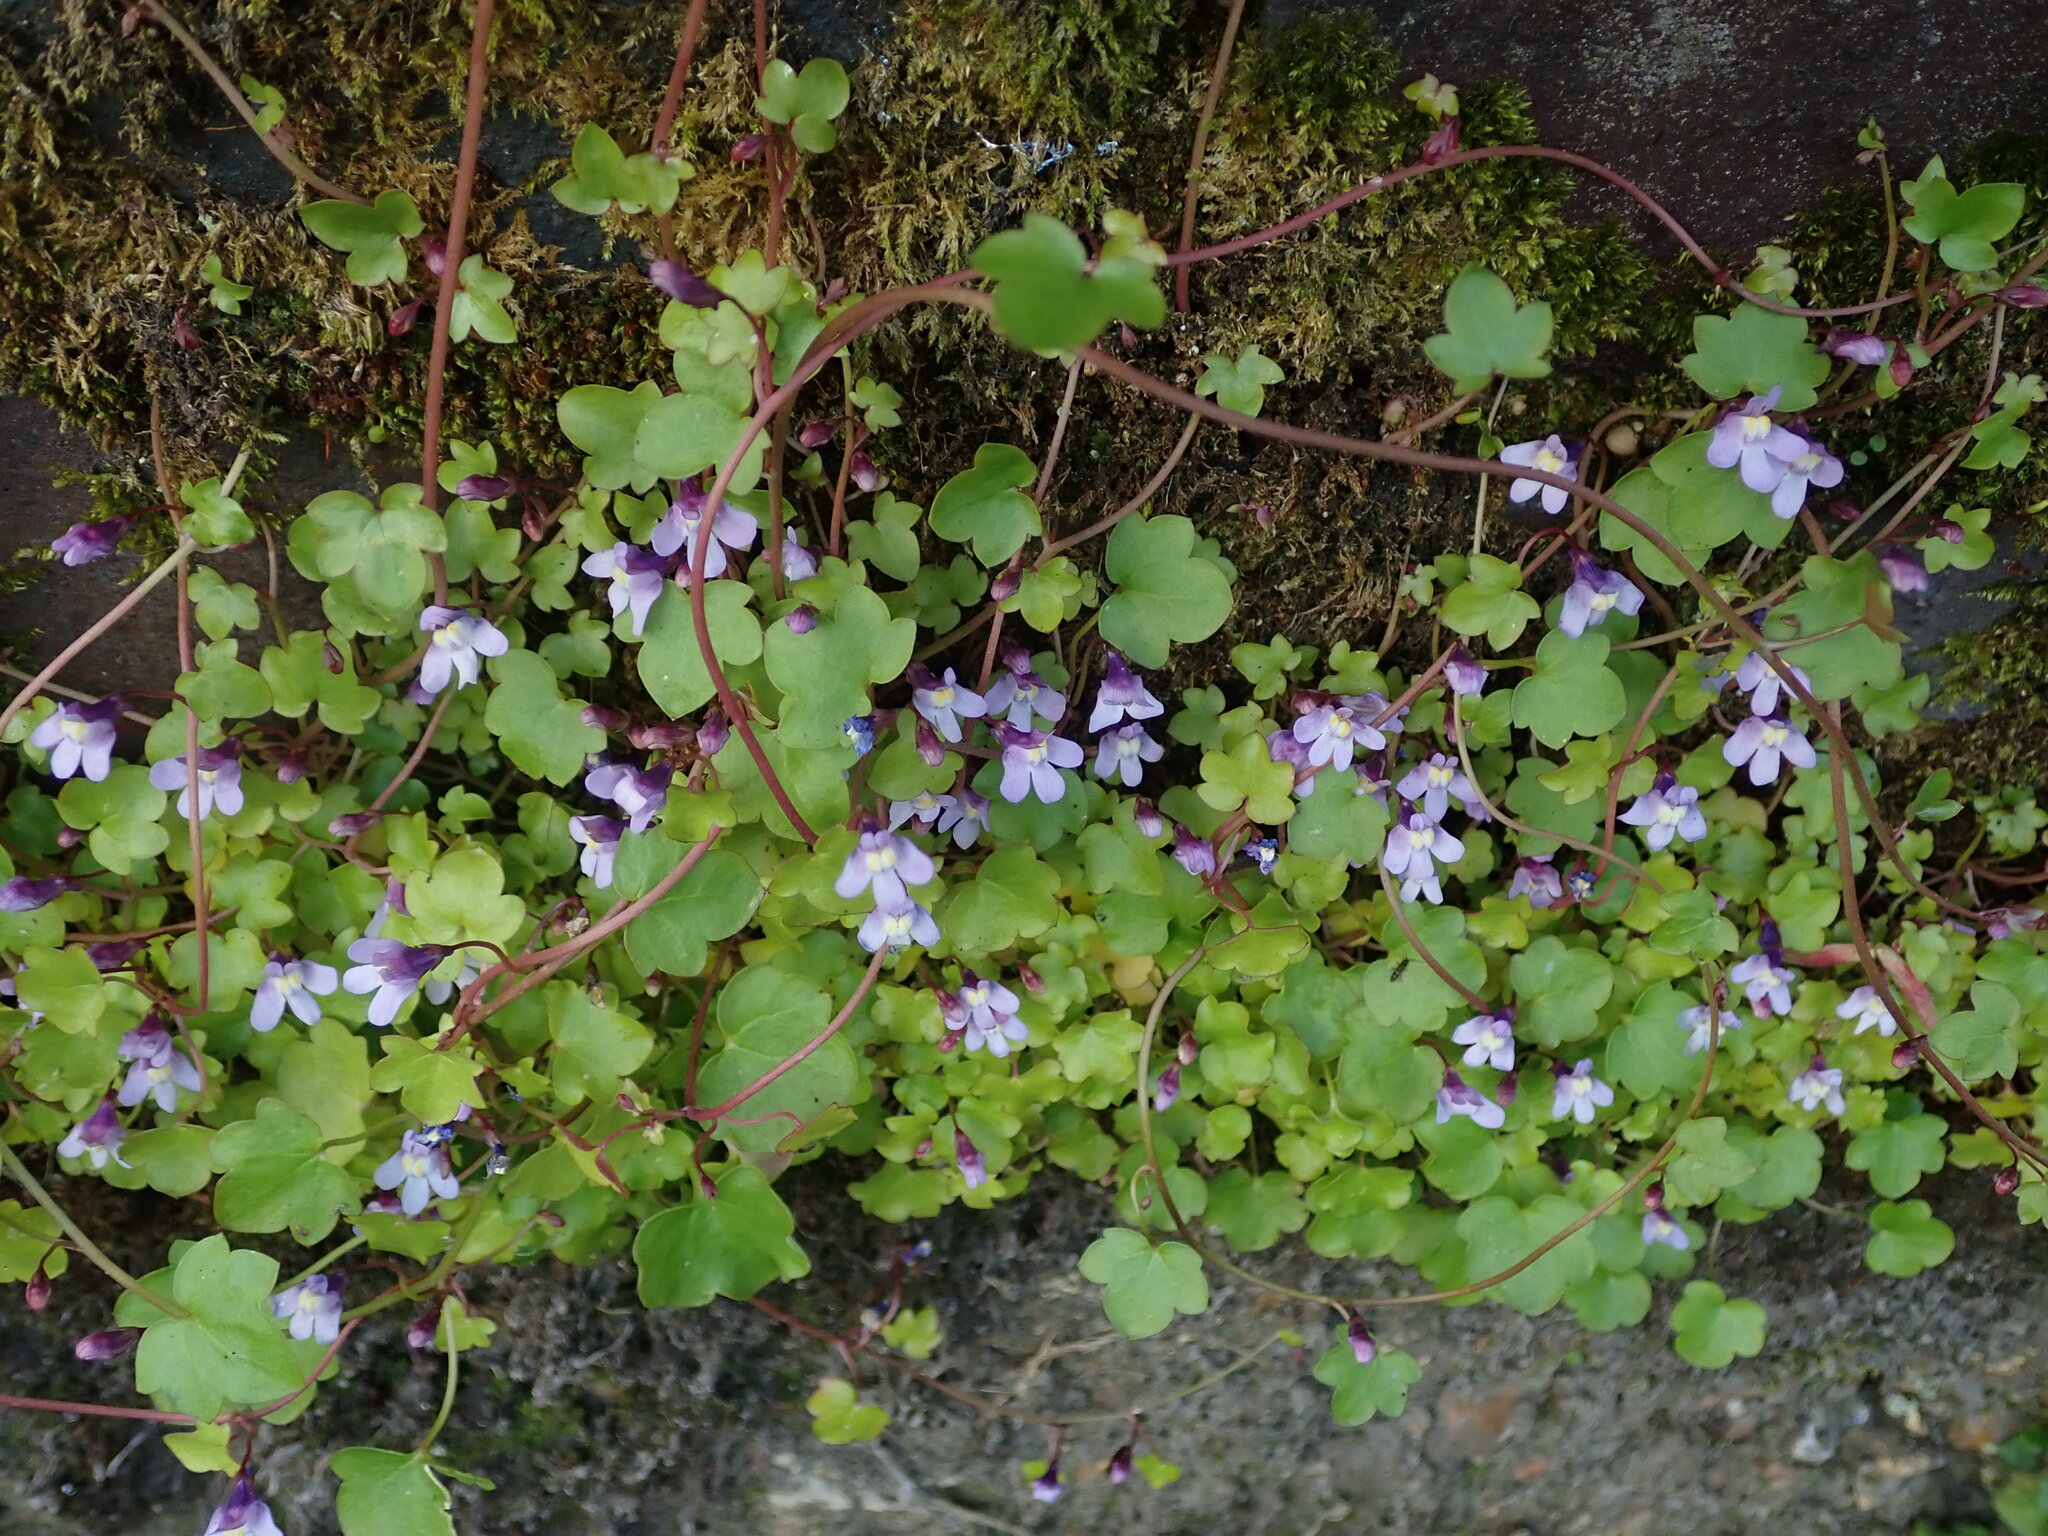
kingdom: Plantae
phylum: Tracheophyta
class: Magnoliopsida
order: Lamiales
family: Plantaginaceae
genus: Cymbalaria
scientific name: Cymbalaria muralis
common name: Ivy-leaved toadflax
